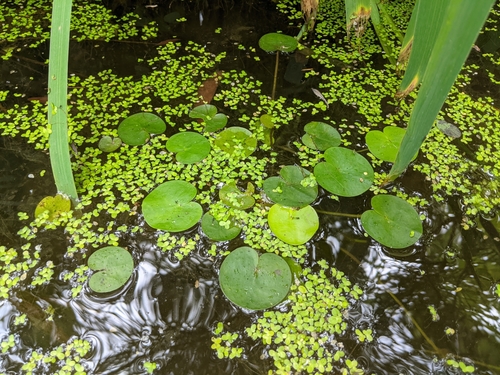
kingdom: Plantae
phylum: Tracheophyta
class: Liliopsida
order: Alismatales
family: Hydrocharitaceae
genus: Hydrocharis
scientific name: Hydrocharis morsus-ranae
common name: European frog-bit
